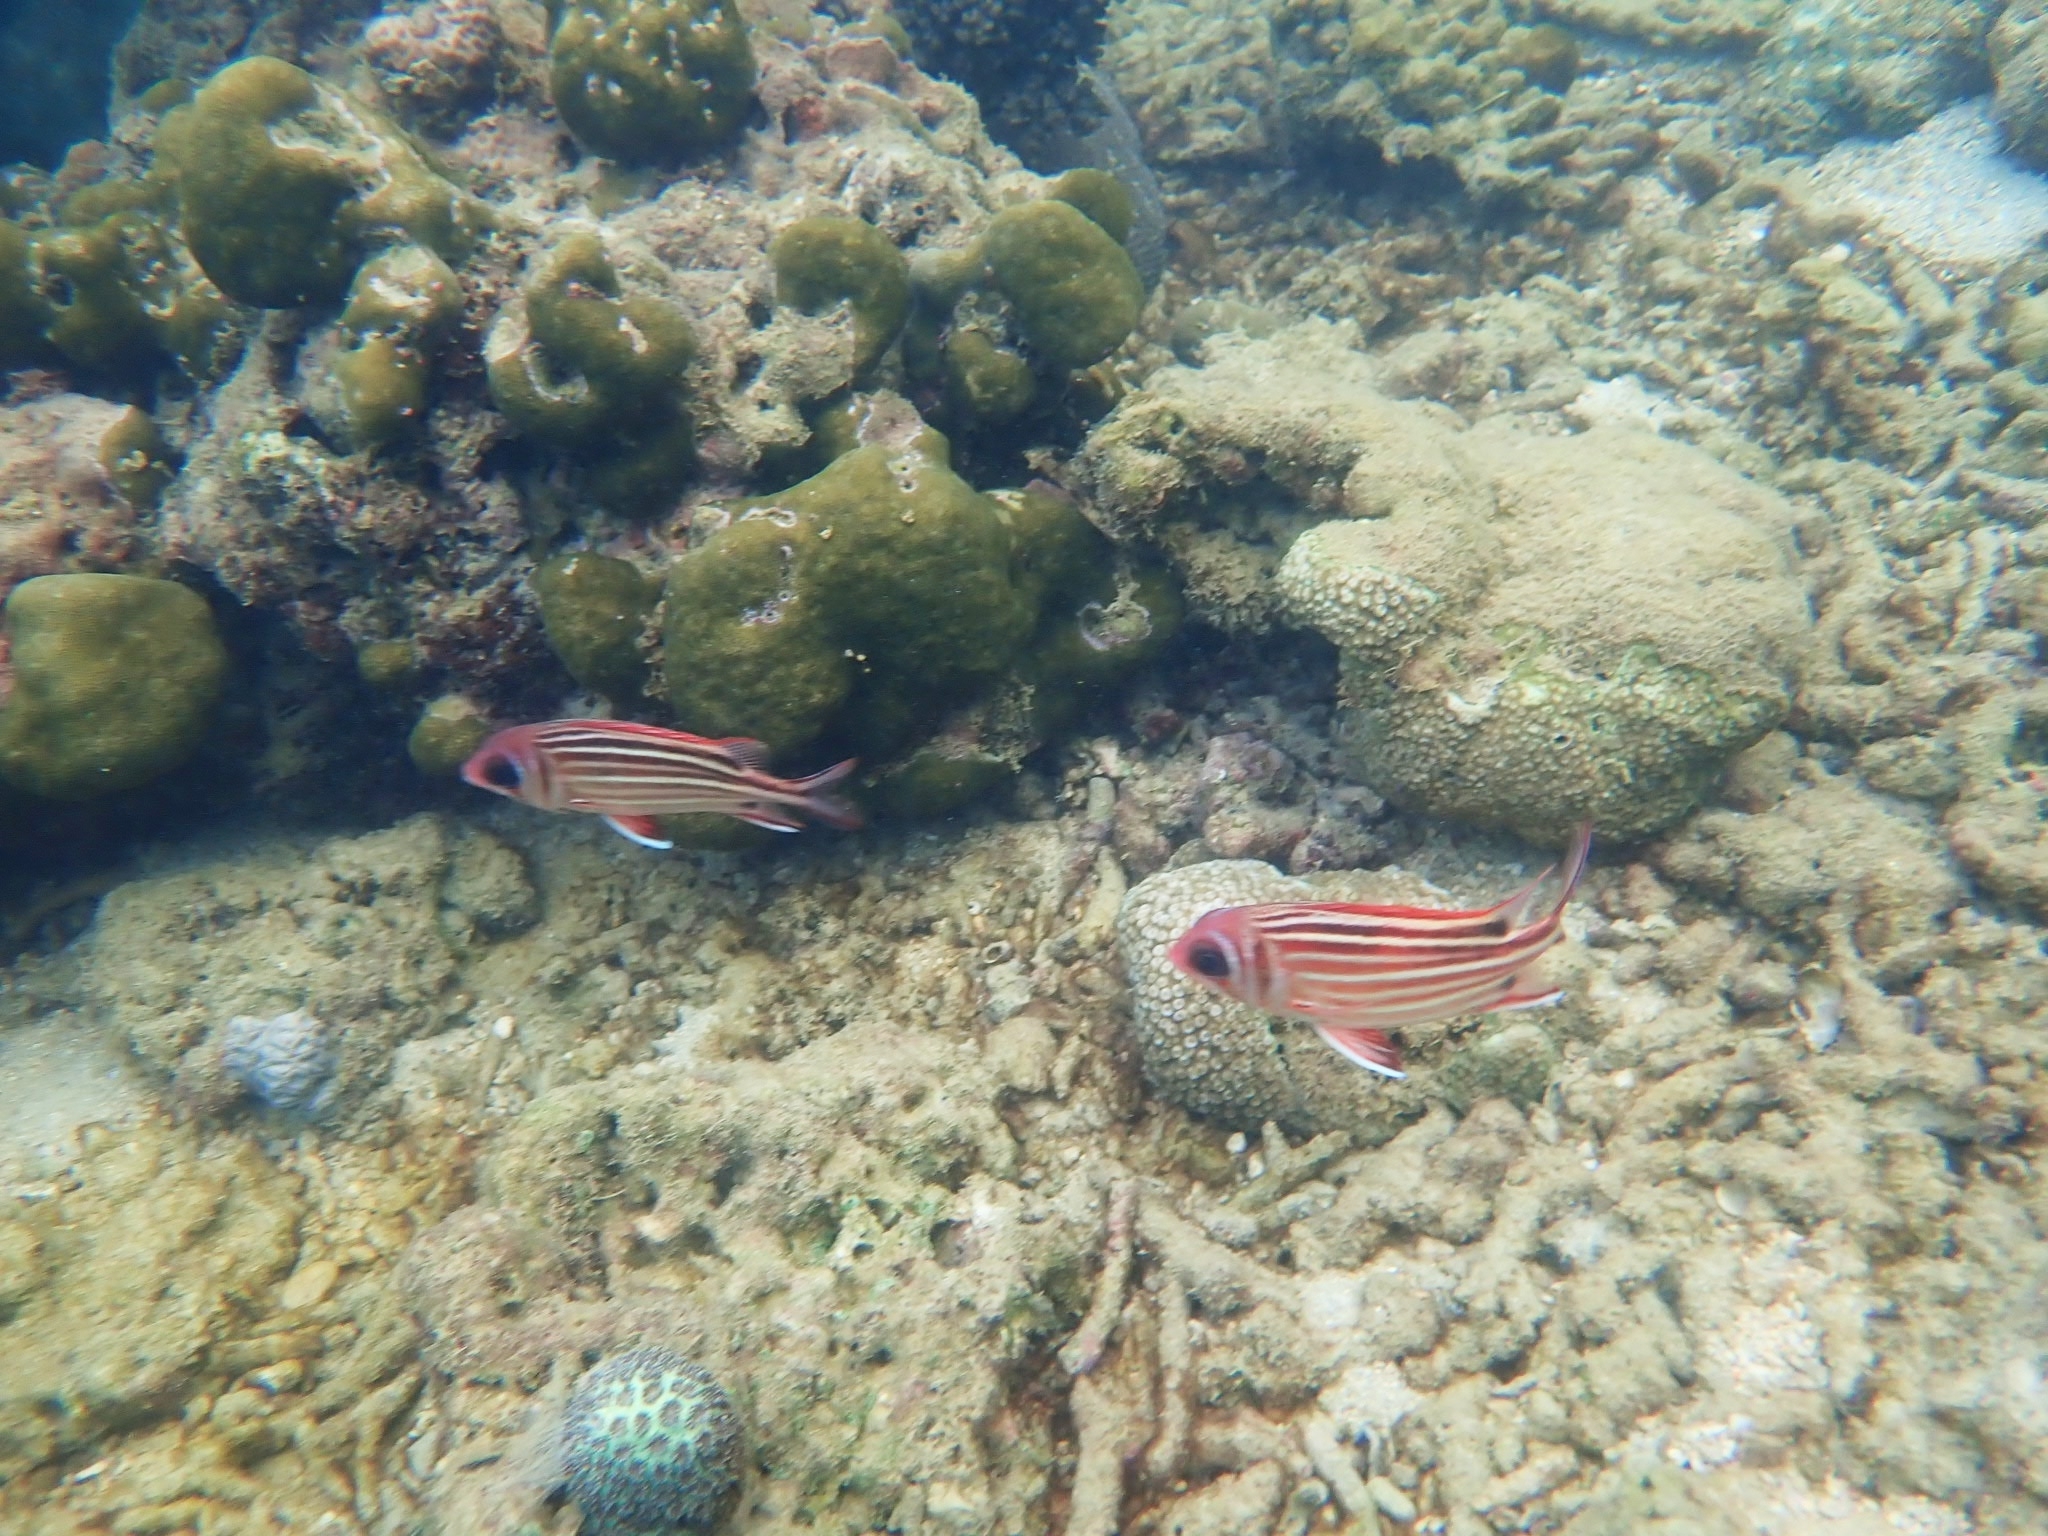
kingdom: Animalia
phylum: Chordata
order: Beryciformes
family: Holocentridae
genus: Sargocentron
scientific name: Sargocentron rubrum
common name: Redcoat
